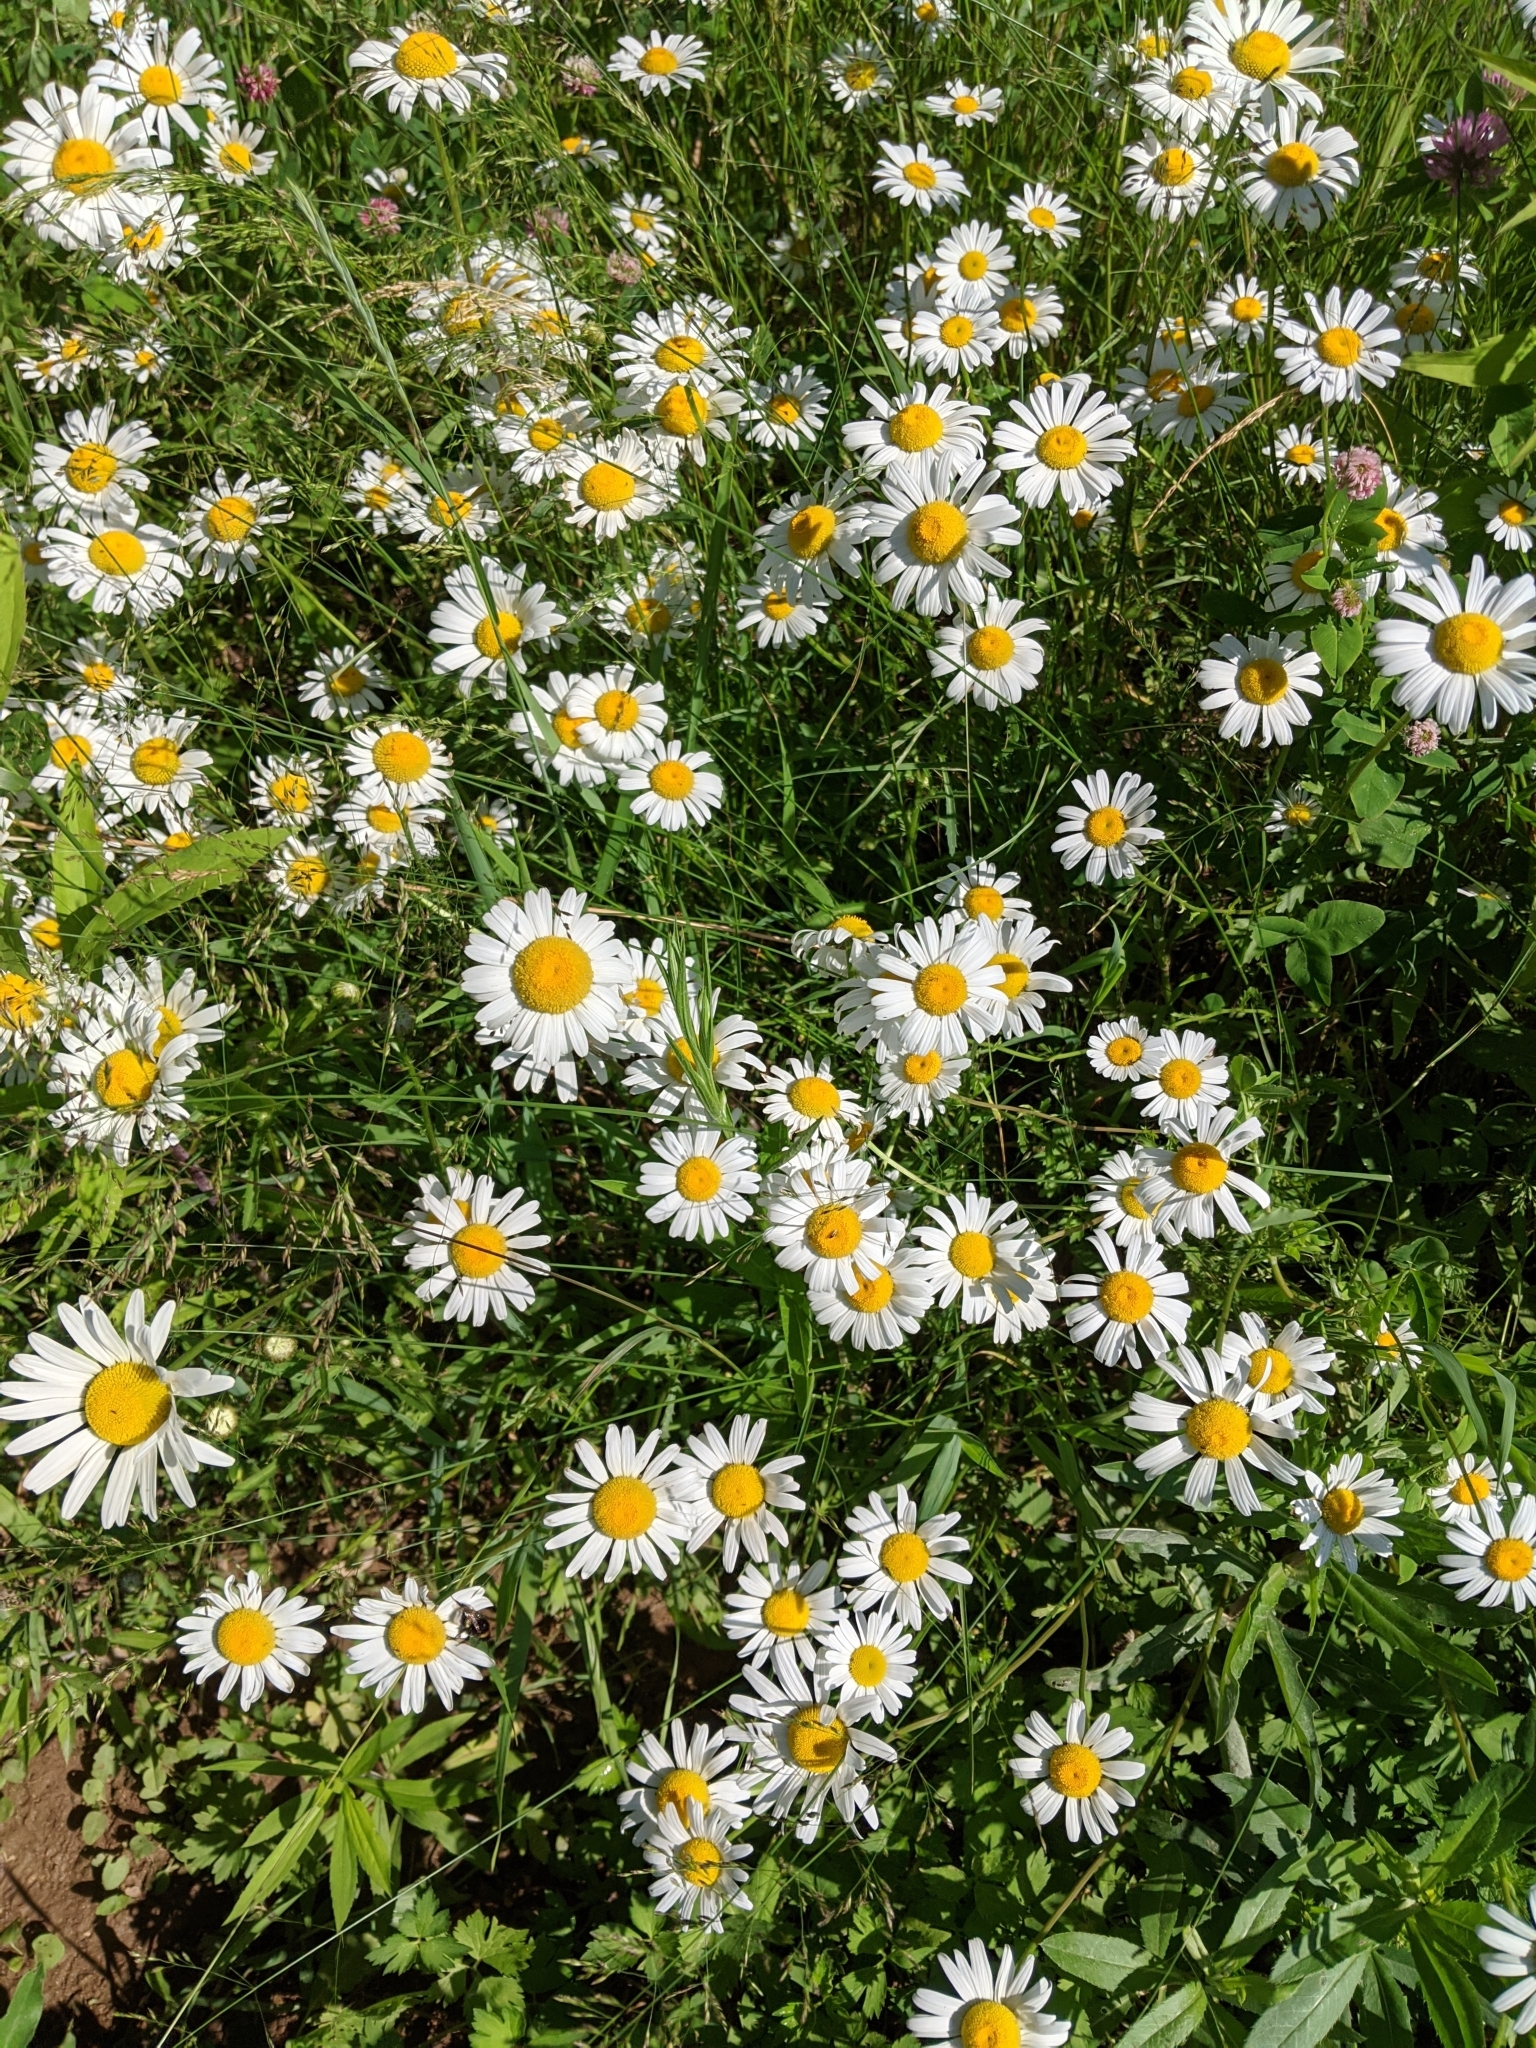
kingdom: Plantae
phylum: Tracheophyta
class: Magnoliopsida
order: Asterales
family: Asteraceae
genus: Leucanthemum
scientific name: Leucanthemum vulgare
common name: Oxeye daisy
